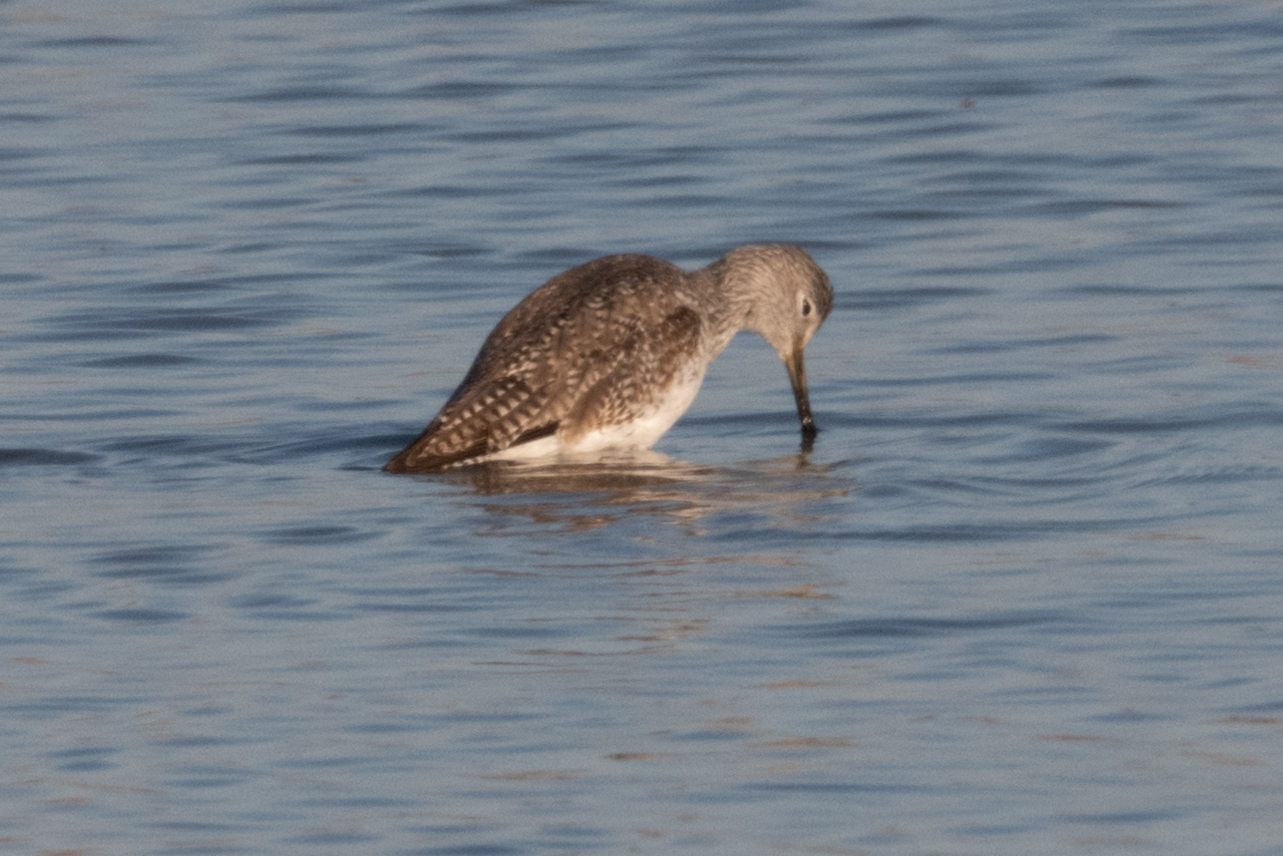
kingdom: Animalia
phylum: Chordata
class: Aves
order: Charadriiformes
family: Scolopacidae
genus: Tringa
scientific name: Tringa melanoleuca
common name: Greater yellowlegs
